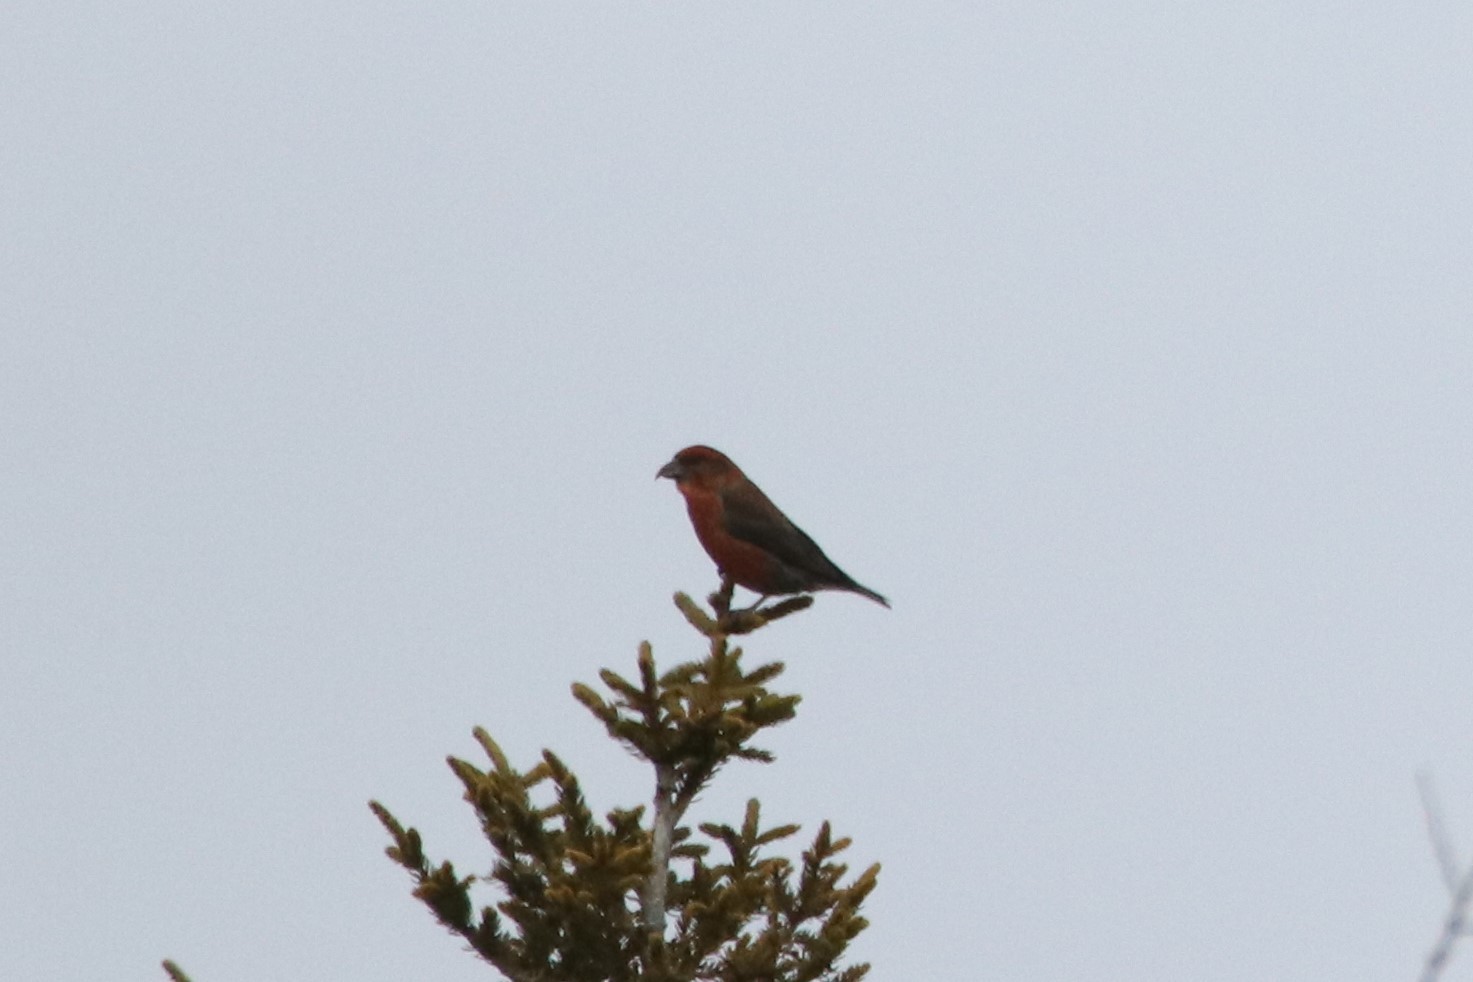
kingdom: Animalia
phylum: Chordata
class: Aves
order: Passeriformes
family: Fringillidae
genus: Loxia
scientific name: Loxia curvirostra
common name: Red crossbill
